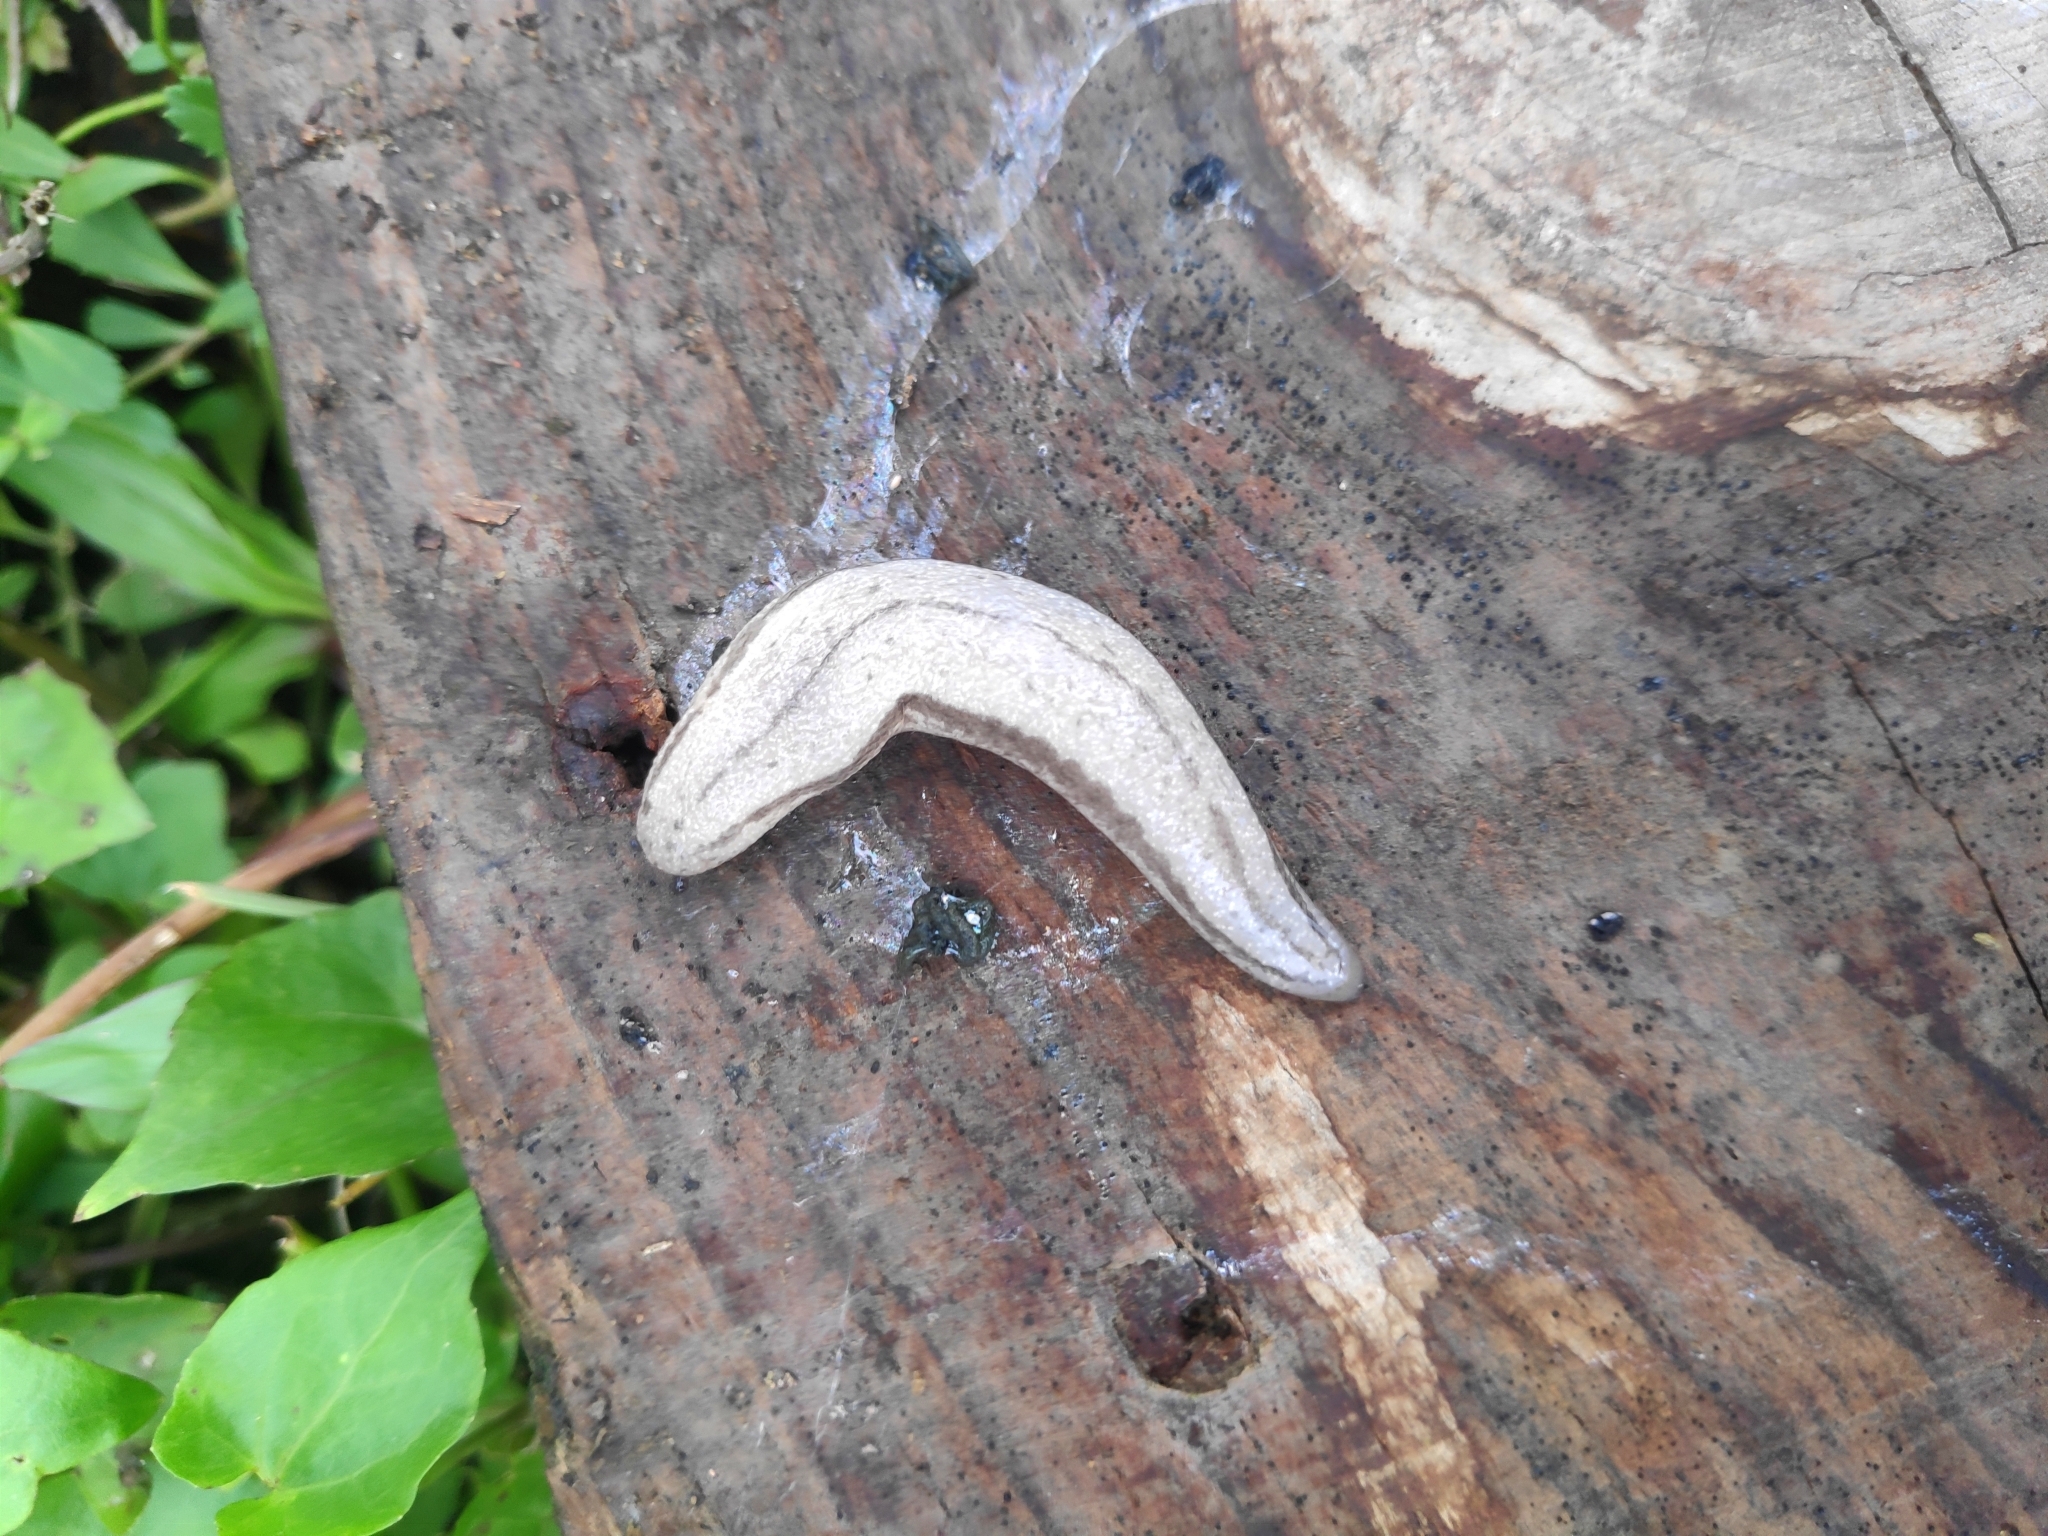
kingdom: Animalia
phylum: Mollusca
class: Gastropoda
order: Stylommatophora
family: Philomycidae
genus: Meghimatium
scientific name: Meghimatium bilineatum
